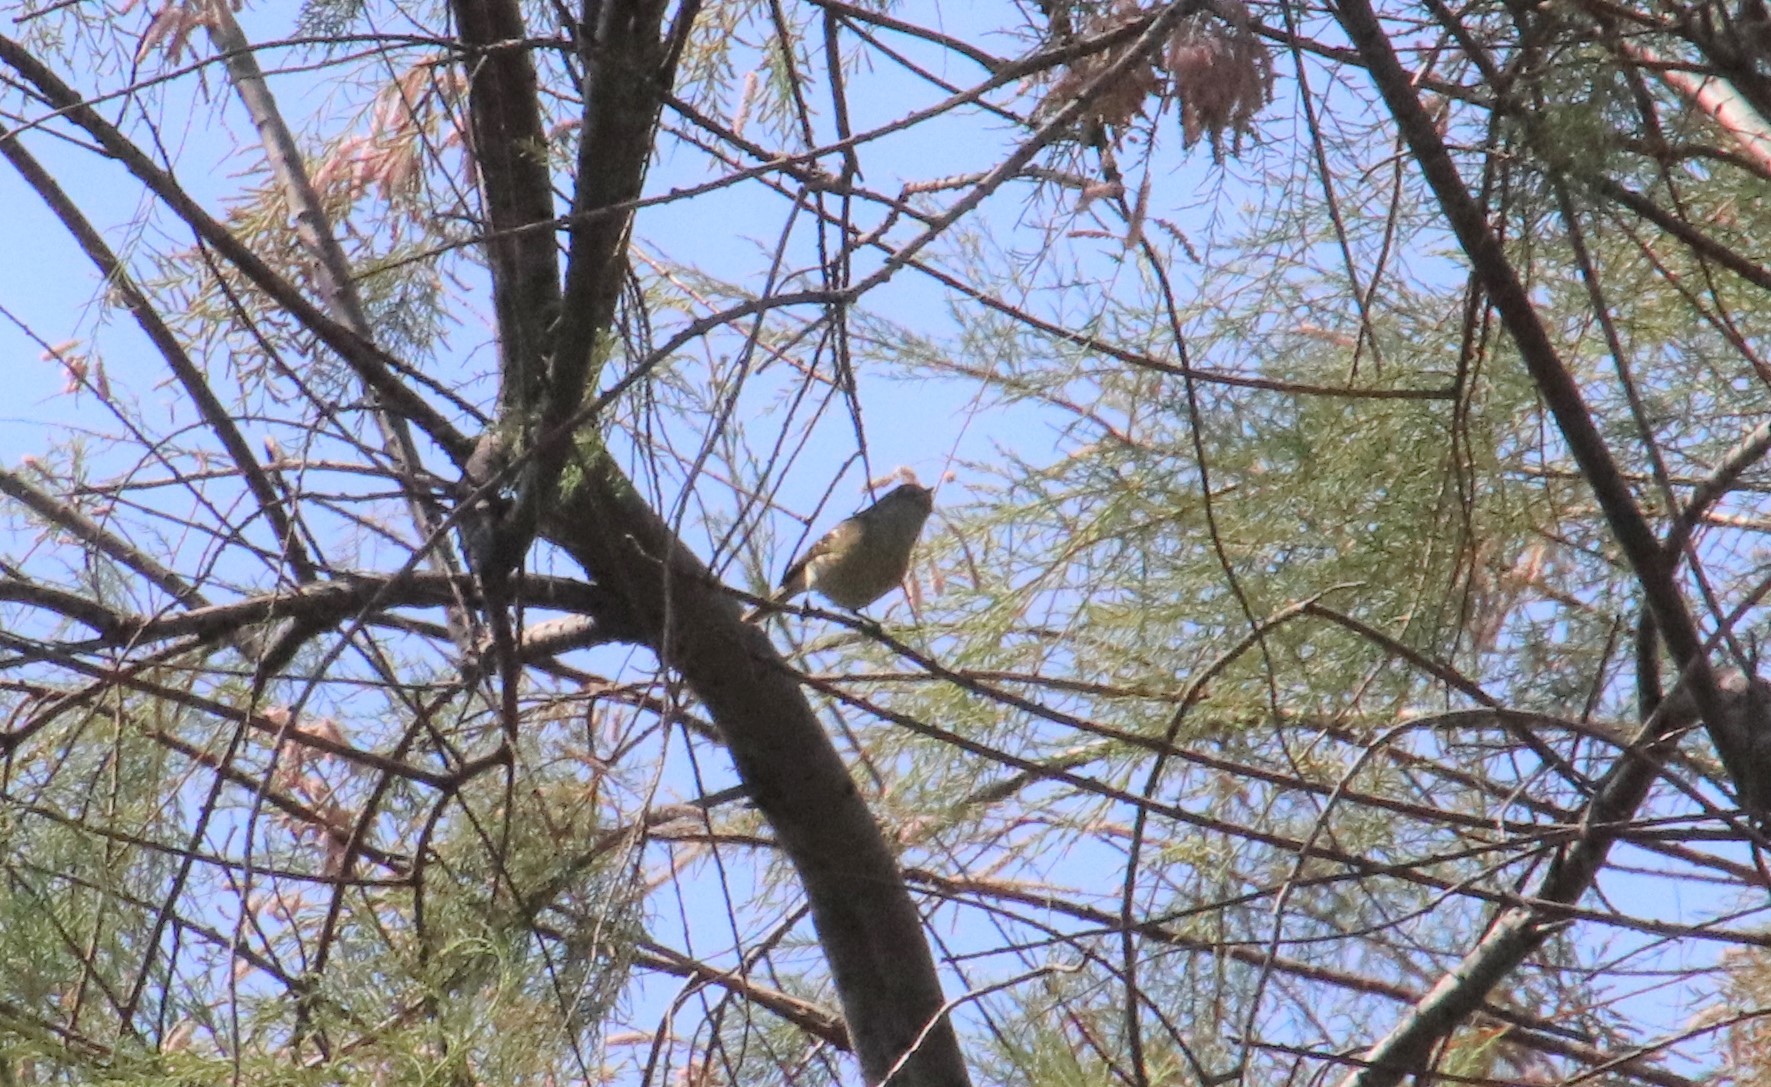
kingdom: Animalia
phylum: Chordata
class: Aves
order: Passeriformes
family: Vireonidae
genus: Vireo
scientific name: Vireo huttoni
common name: Hutton's vireo
